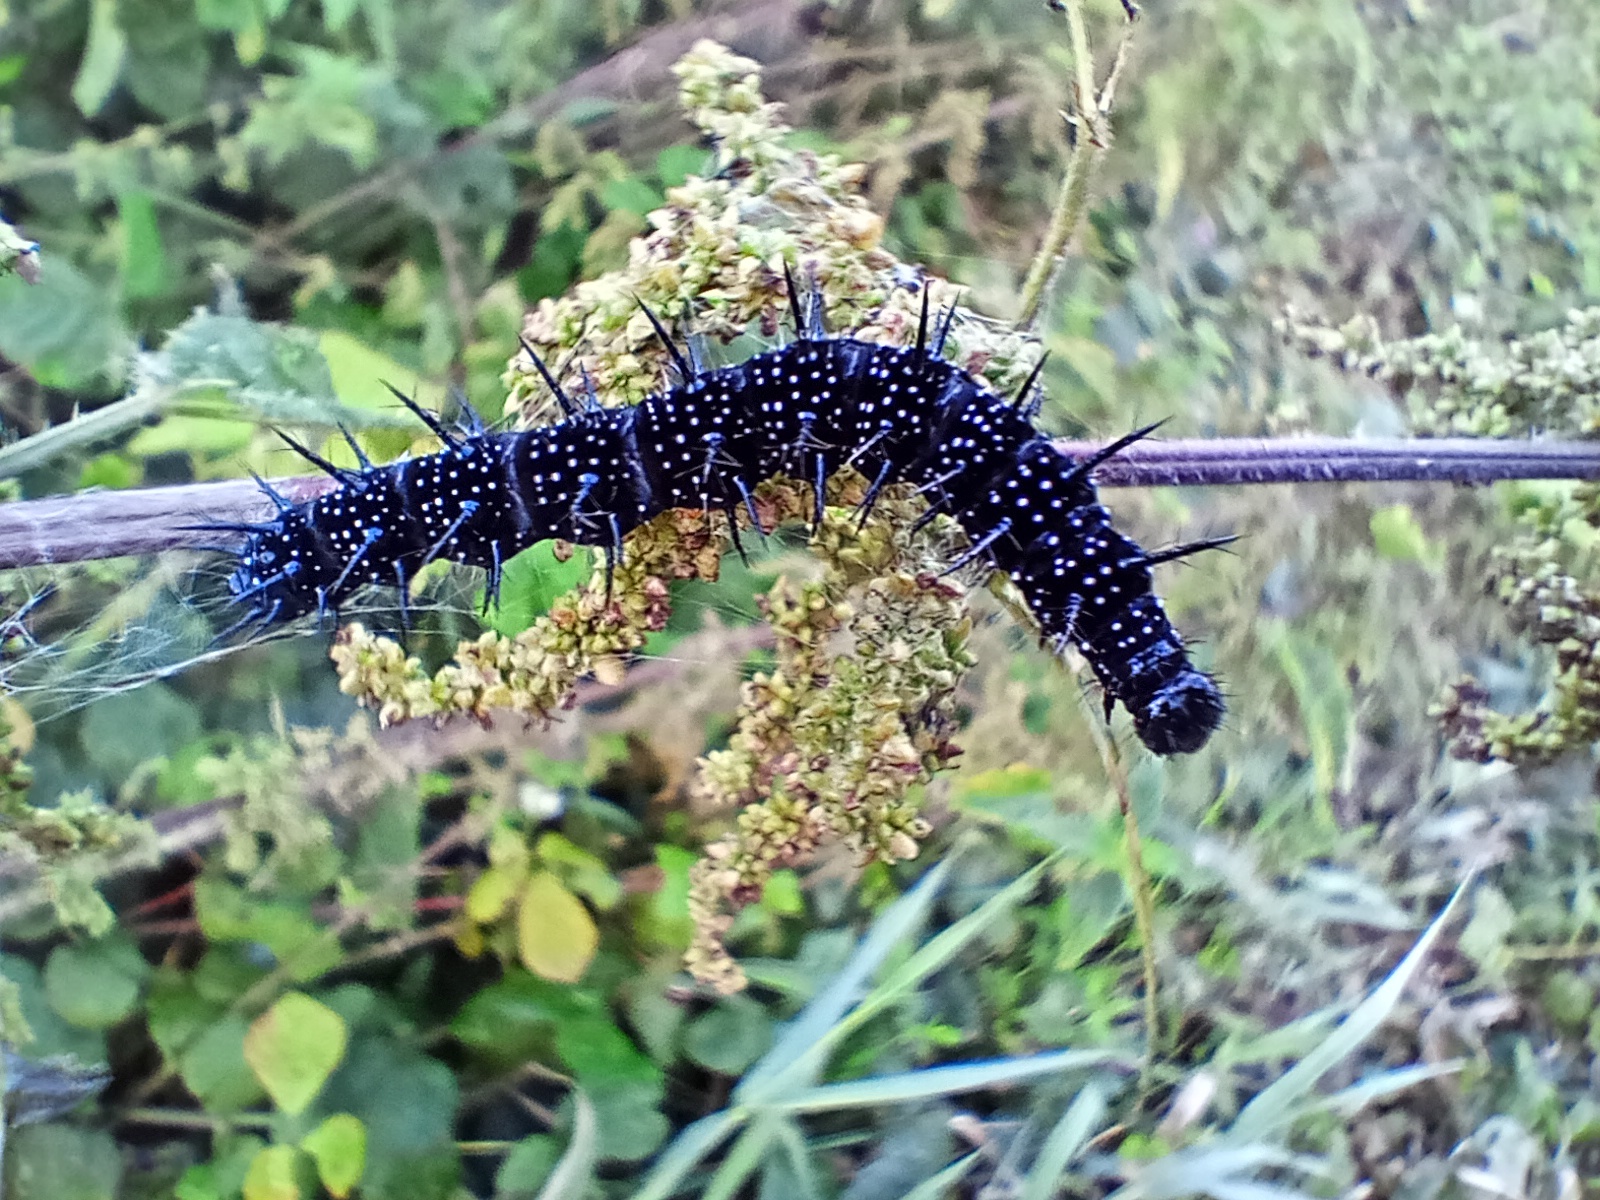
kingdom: Animalia
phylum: Arthropoda
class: Insecta
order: Lepidoptera
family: Nymphalidae
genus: Aglais
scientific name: Aglais io
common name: Peacock
